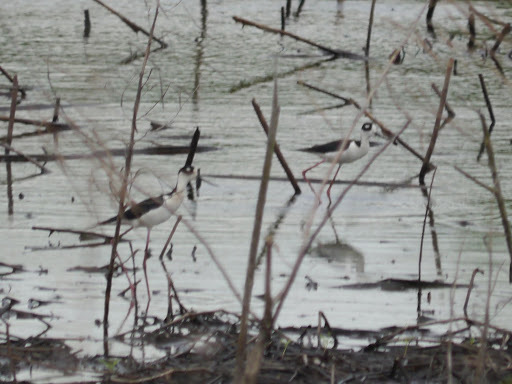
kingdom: Animalia
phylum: Chordata
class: Aves
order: Charadriiformes
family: Recurvirostridae
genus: Himantopus
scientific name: Himantopus mexicanus
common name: Black-necked stilt
